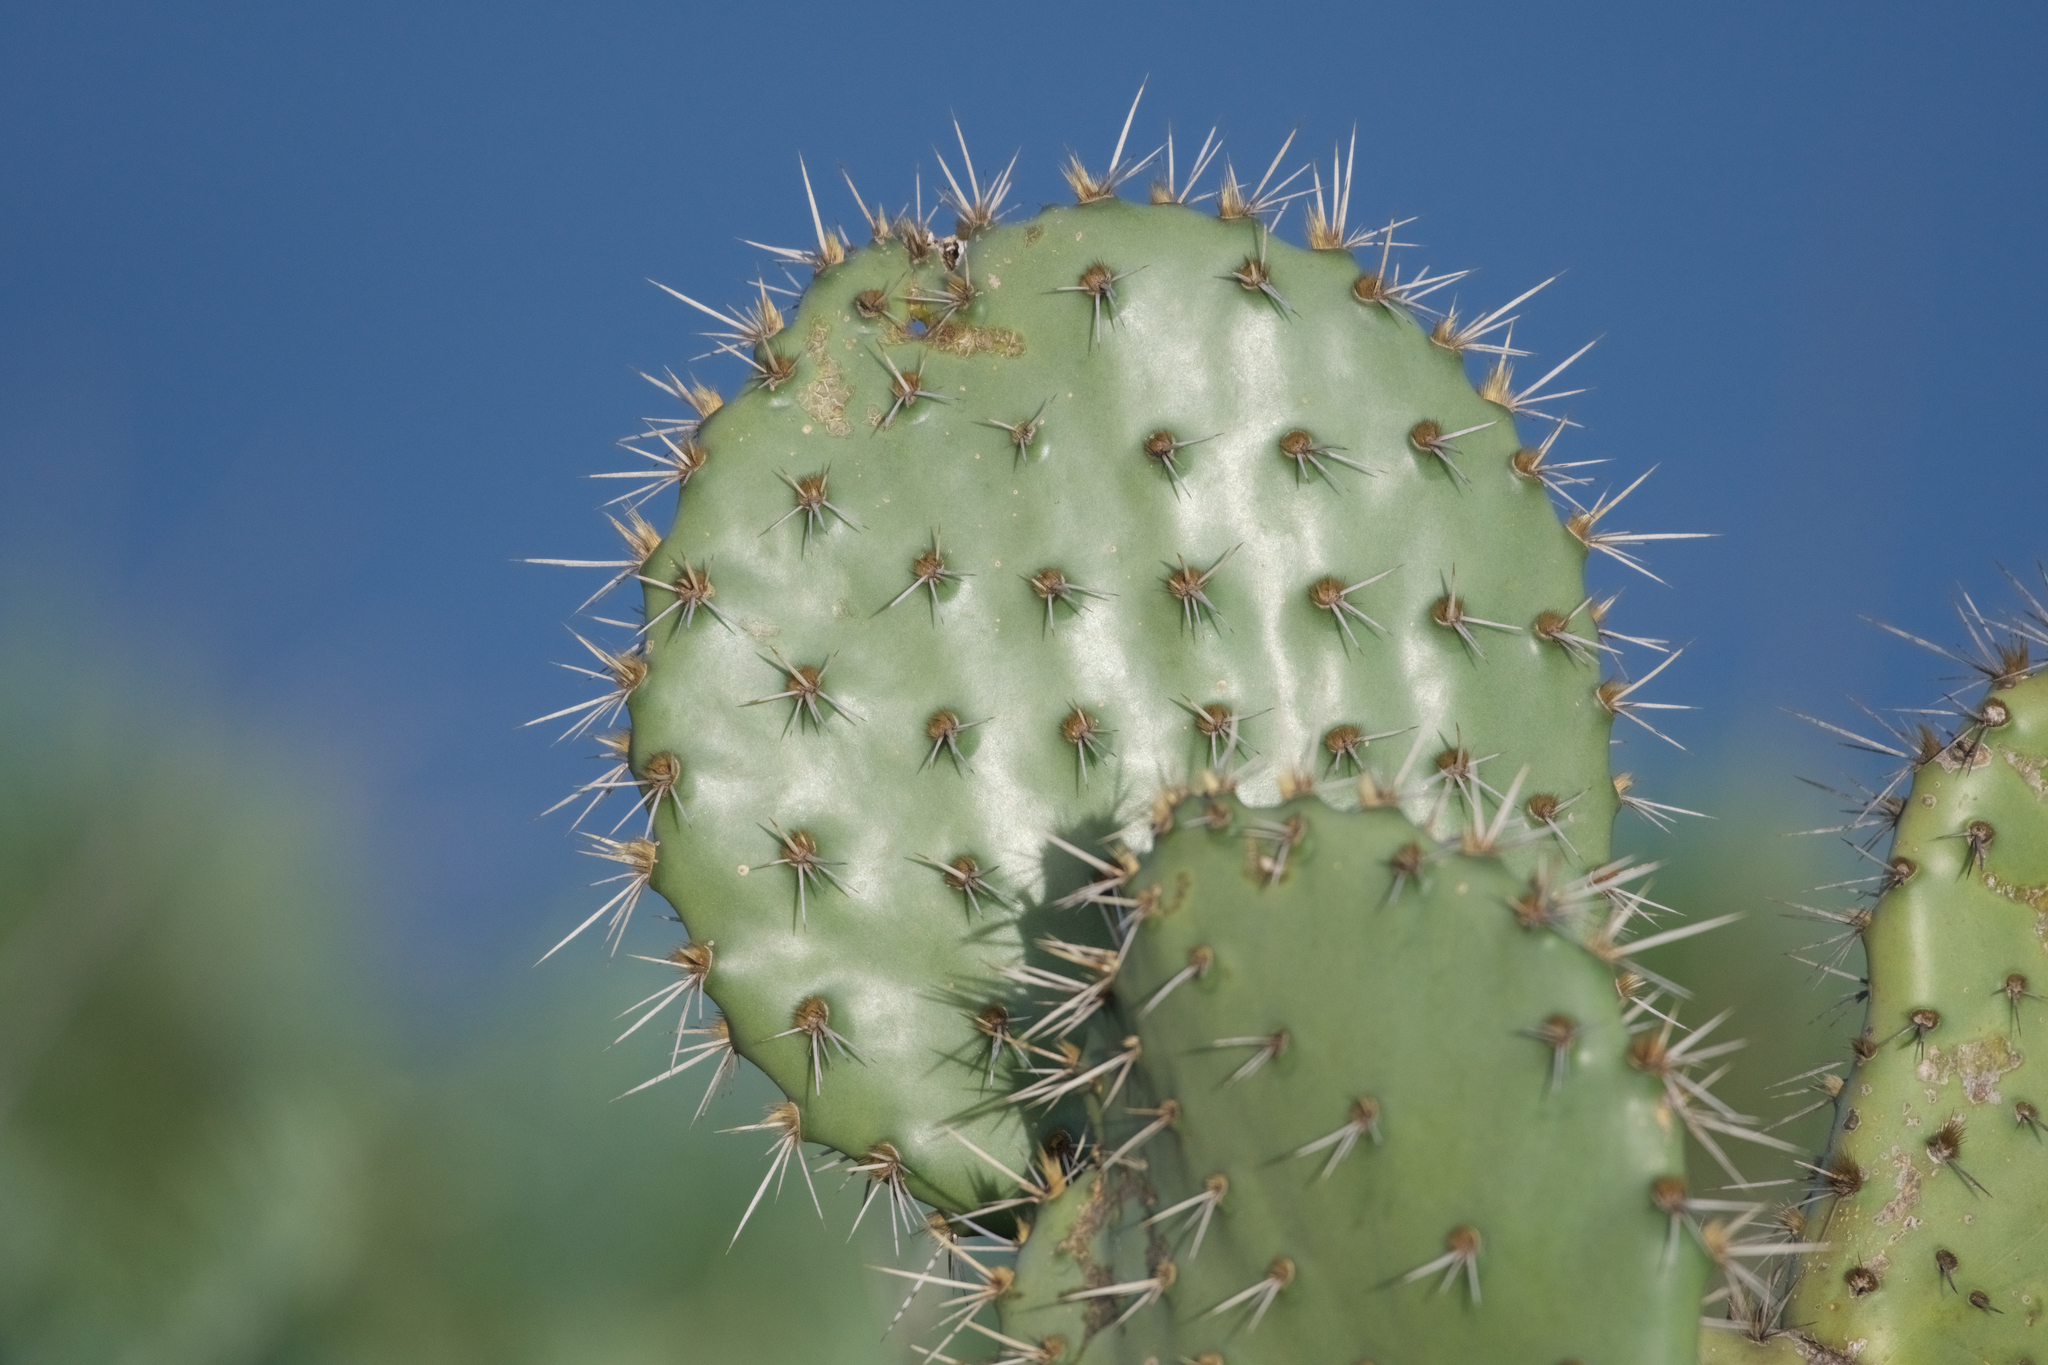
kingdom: Plantae
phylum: Tracheophyta
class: Magnoliopsida
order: Caryophyllales
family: Cactaceae
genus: Opuntia
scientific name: Opuntia oricola
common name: Chaparral prickly-pear
